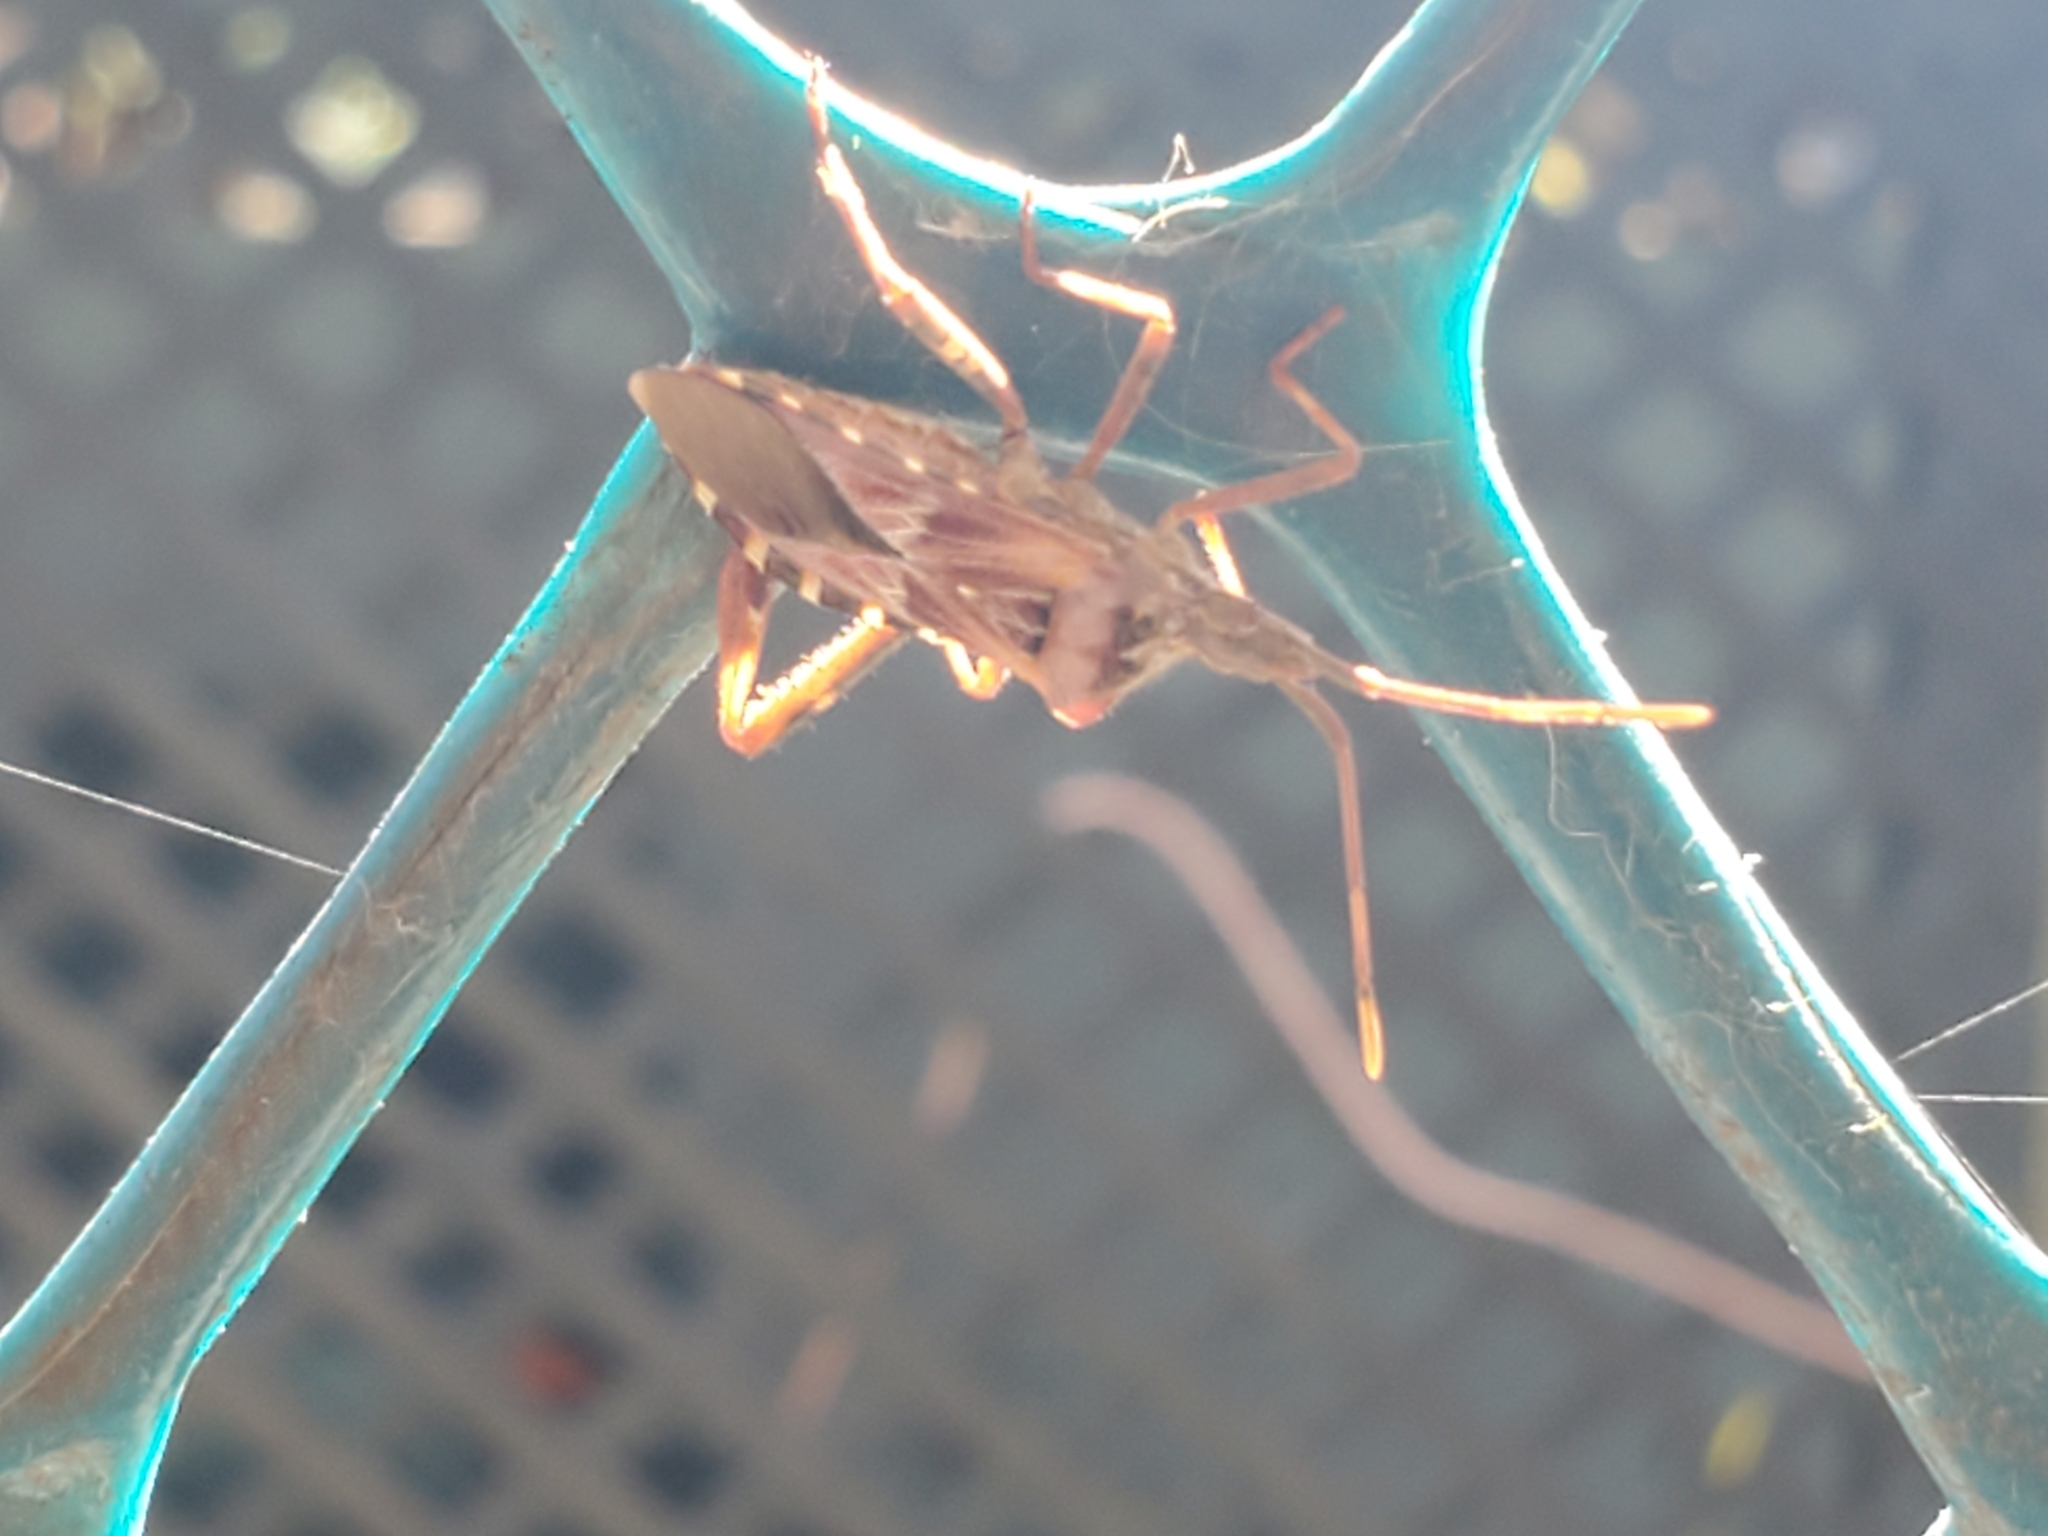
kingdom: Animalia
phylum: Arthropoda
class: Insecta
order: Hemiptera
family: Coreidae
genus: Leptoglossus
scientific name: Leptoglossus occidentalis
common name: Western conifer-seed bug
